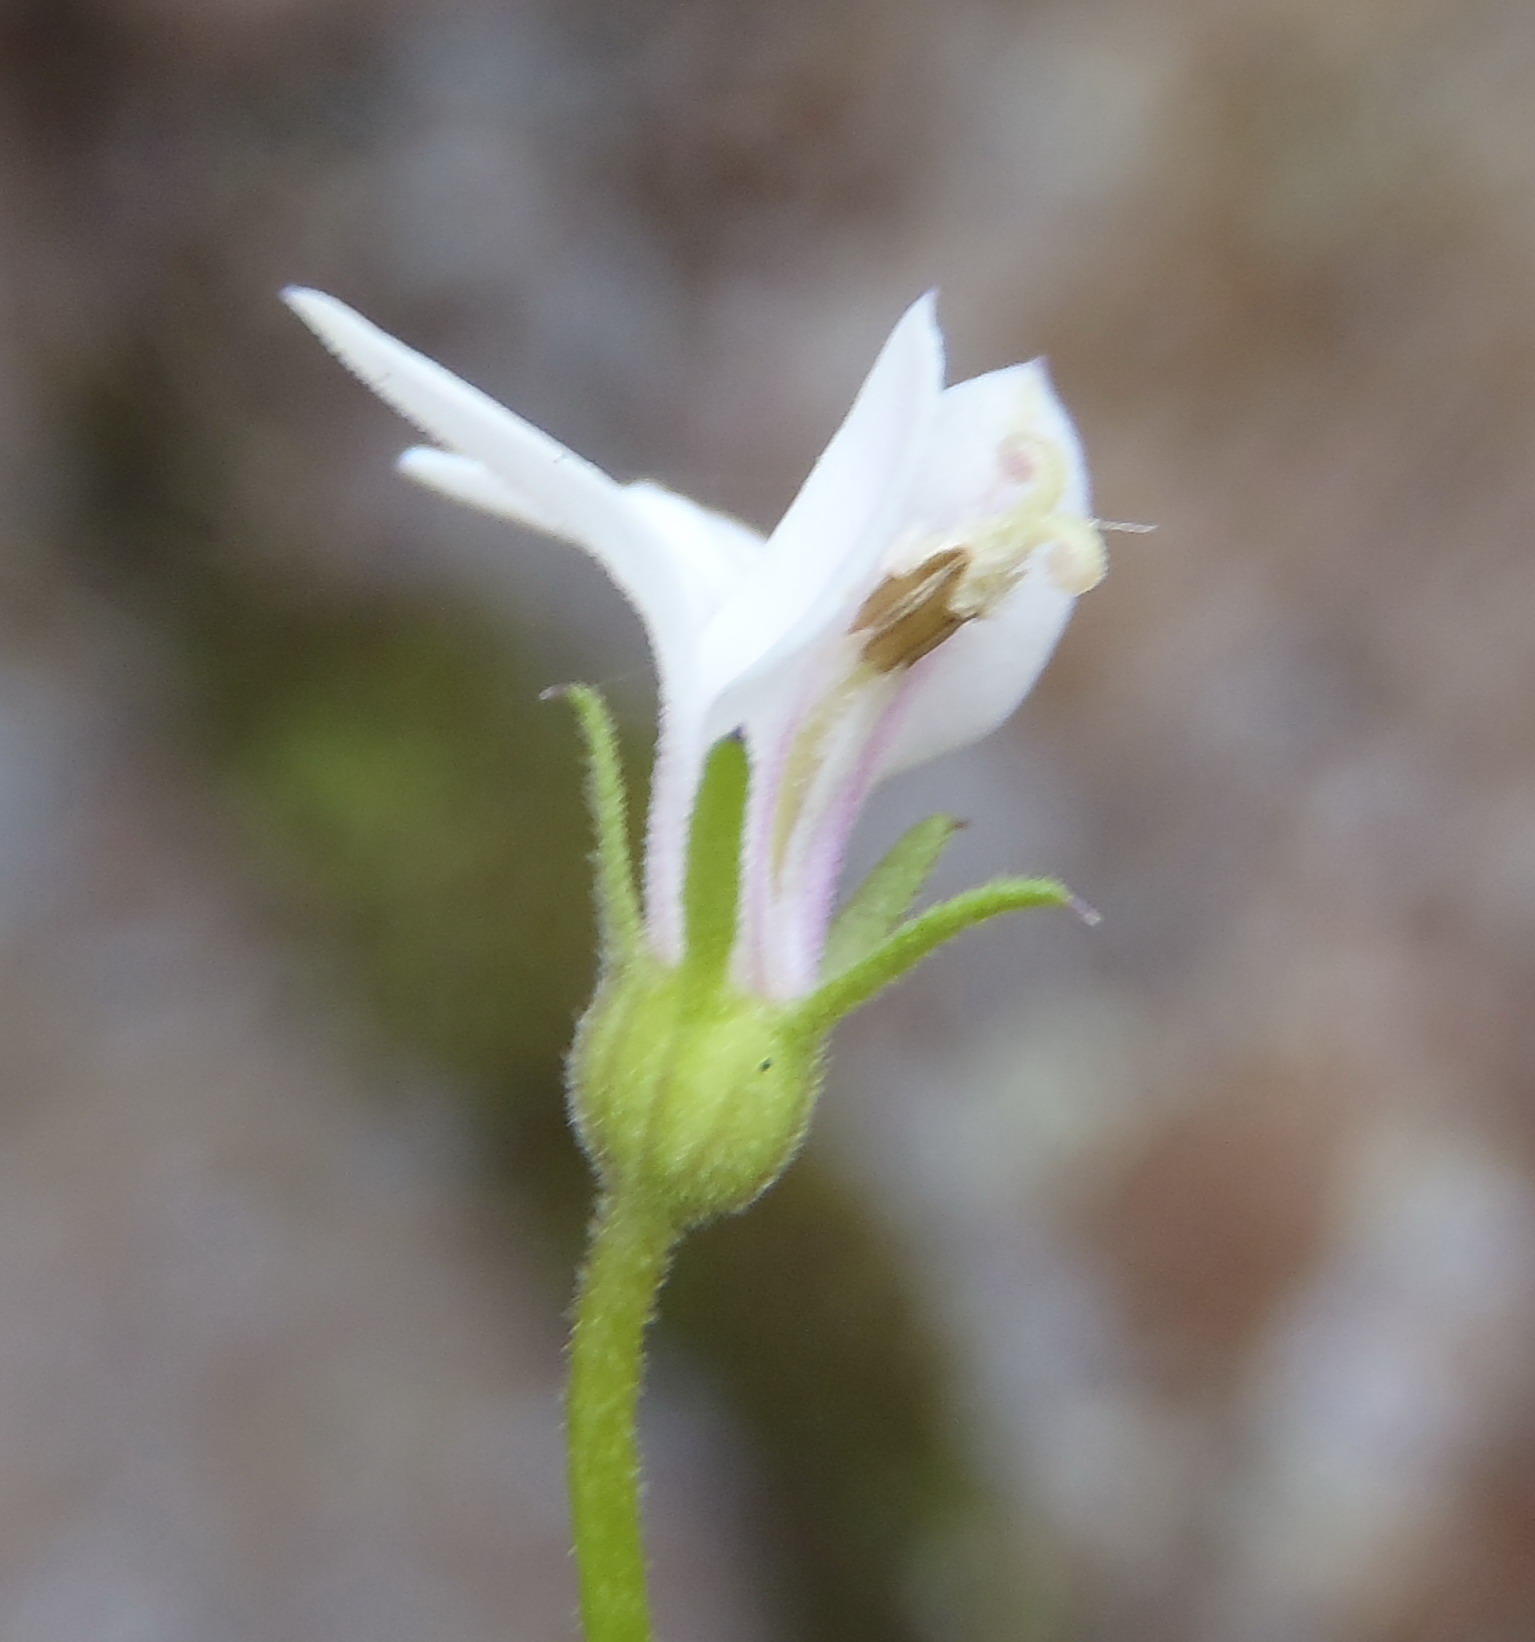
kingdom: Plantae
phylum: Tracheophyta
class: Magnoliopsida
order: Asterales
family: Campanulaceae
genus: Monopsis
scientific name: Monopsis alba
